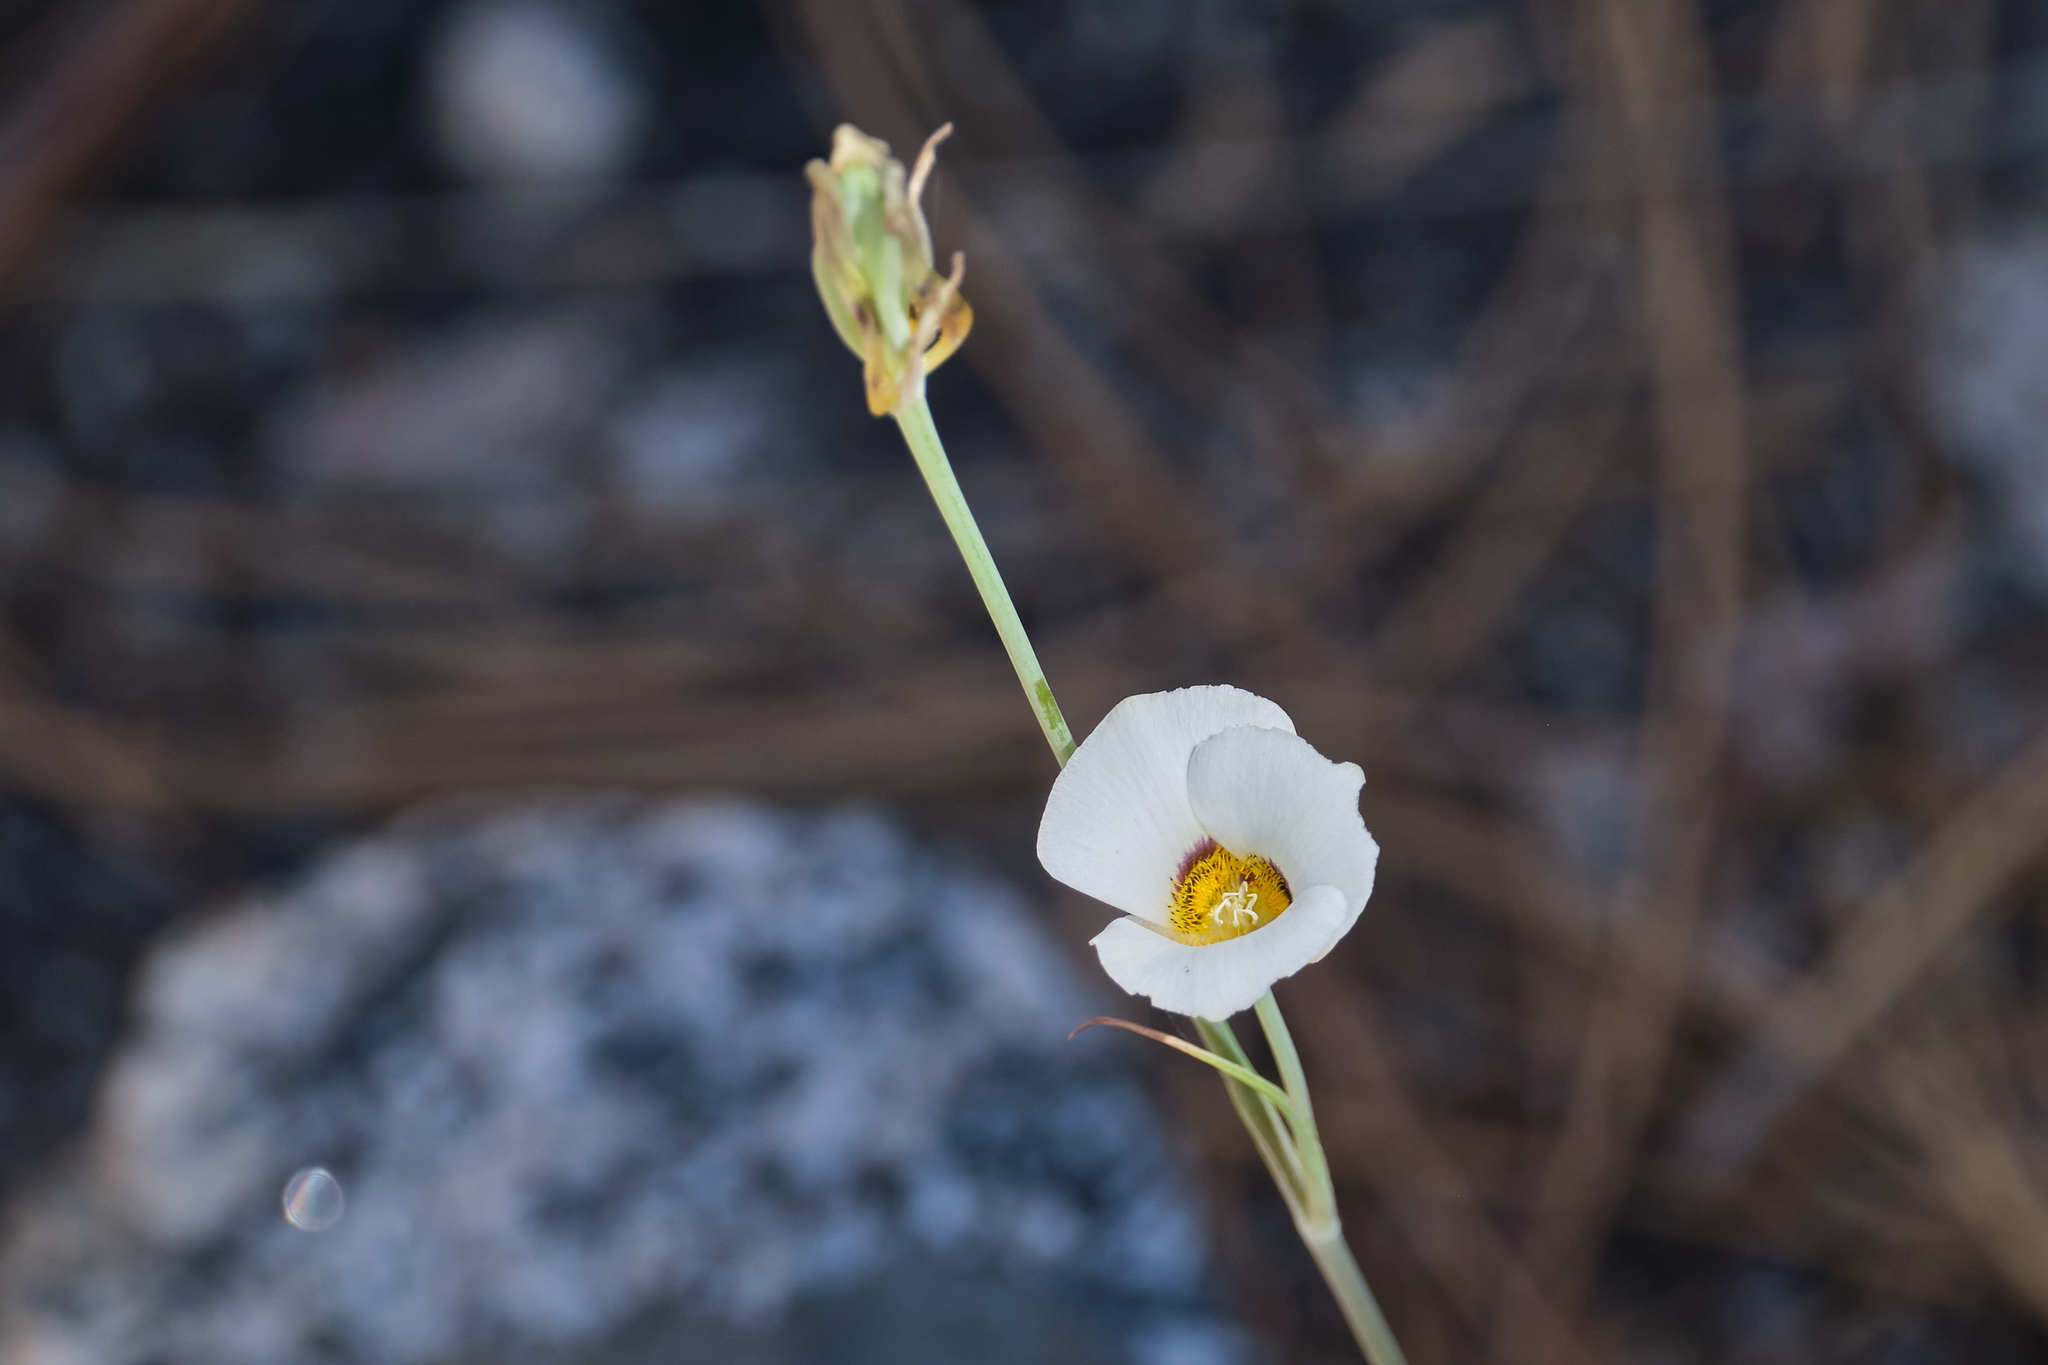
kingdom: Plantae
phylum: Tracheophyta
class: Liliopsida
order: Liliales
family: Liliaceae
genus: Calochortus
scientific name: Calochortus leichtlinii
